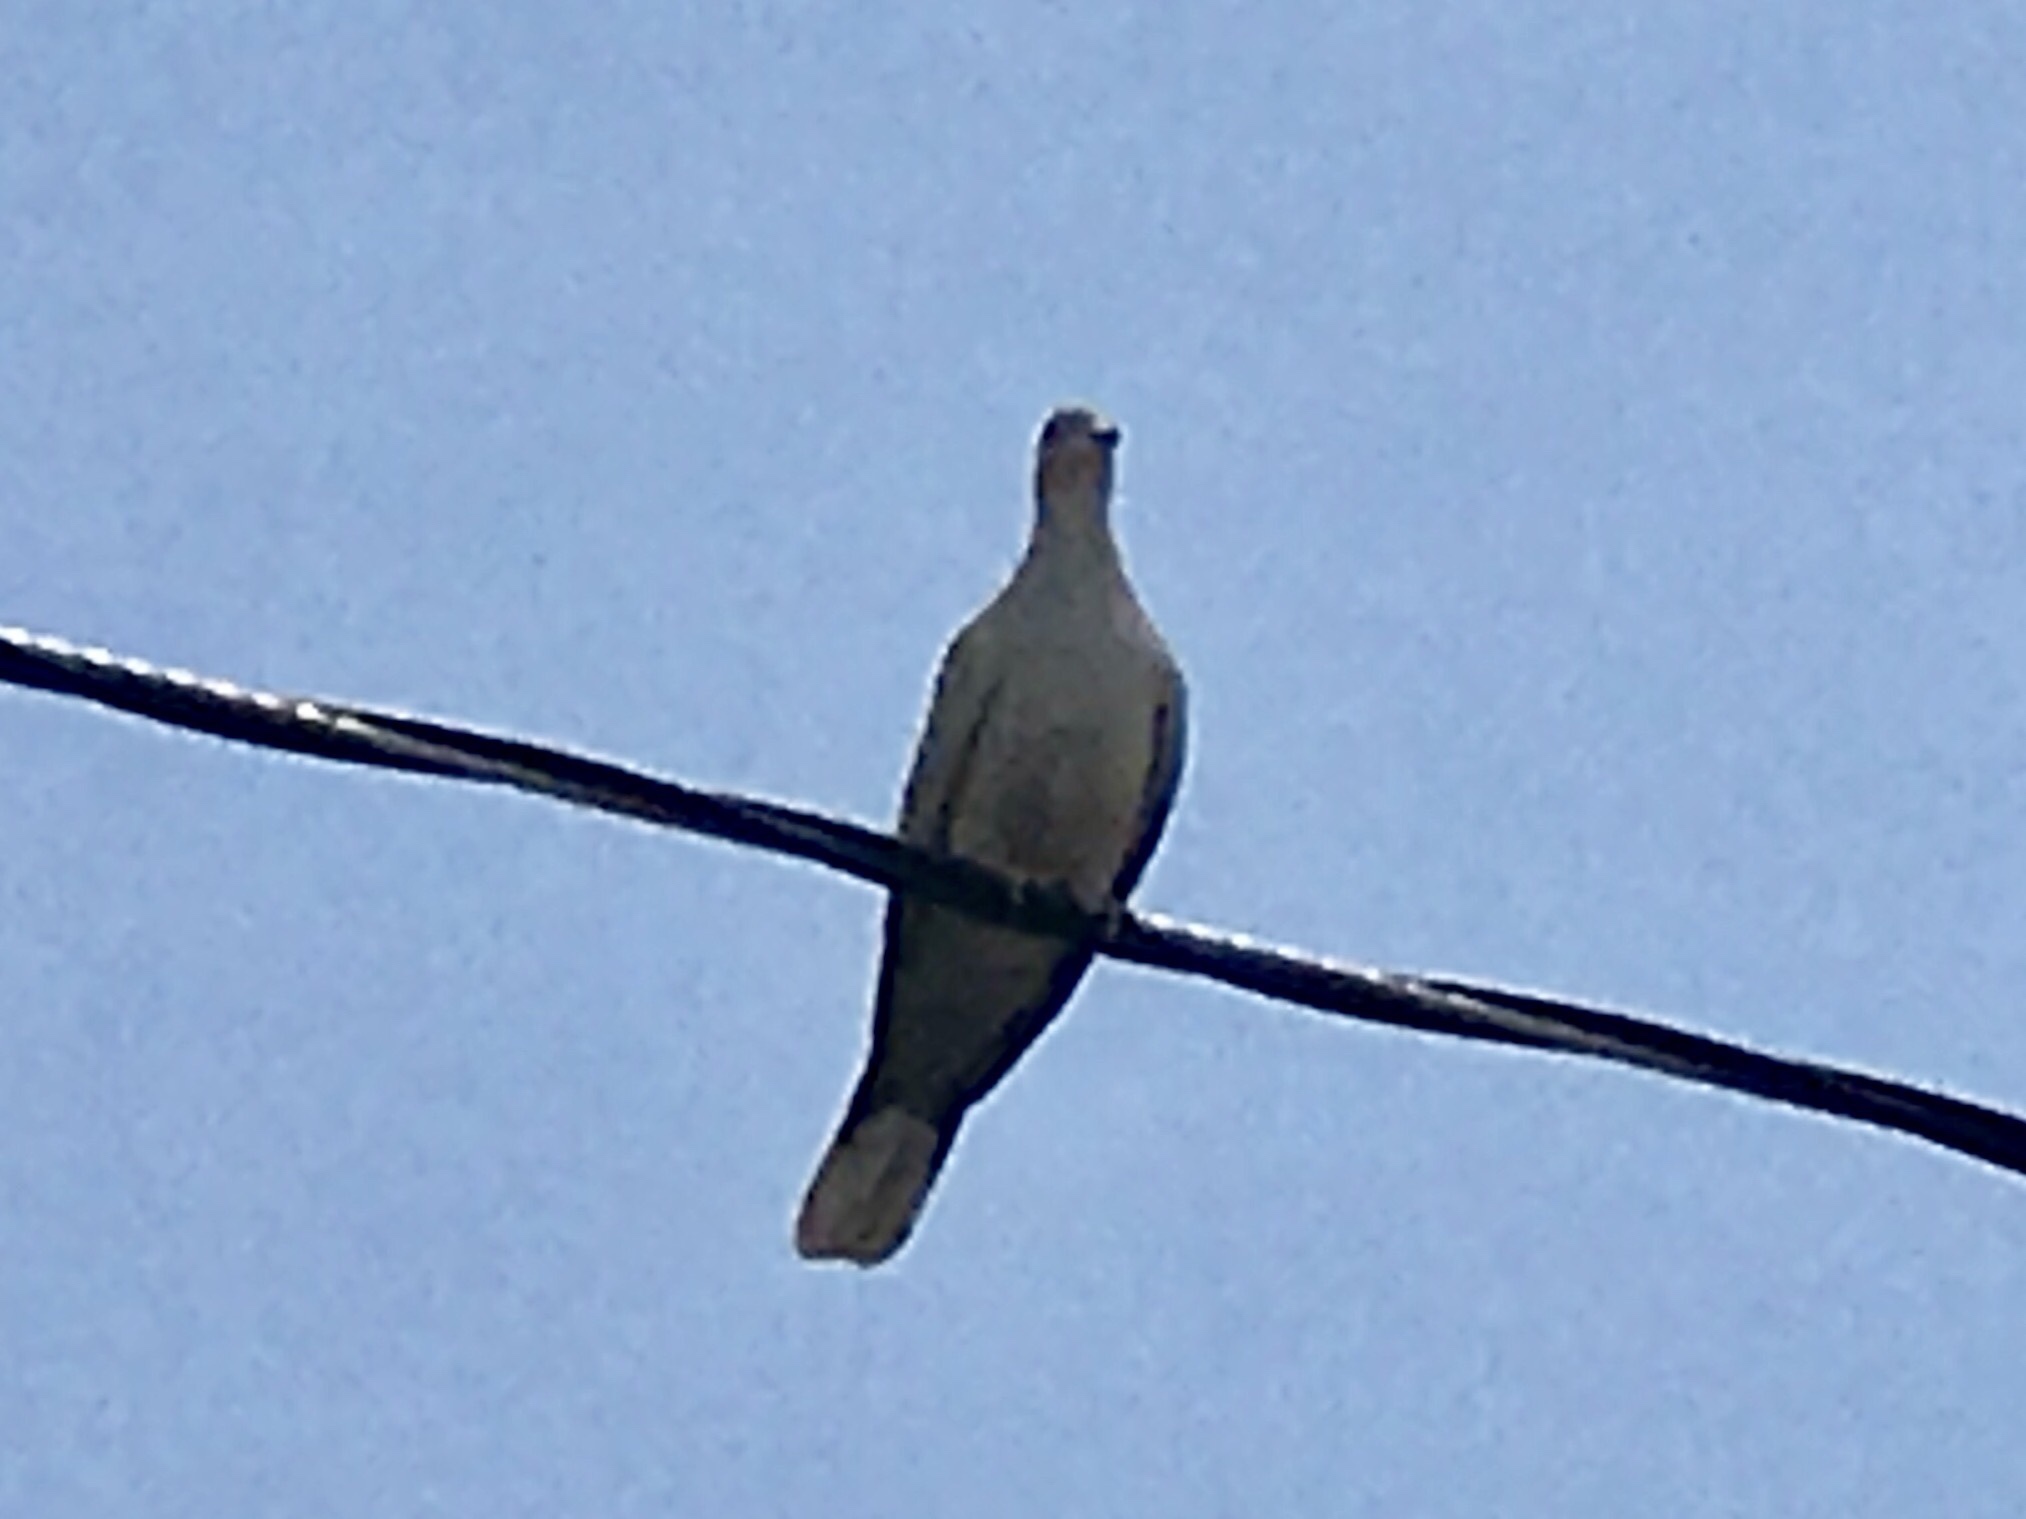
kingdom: Animalia
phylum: Chordata
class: Aves
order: Columbiformes
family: Columbidae
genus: Streptopelia
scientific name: Streptopelia decaocto
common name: Eurasian collared dove
